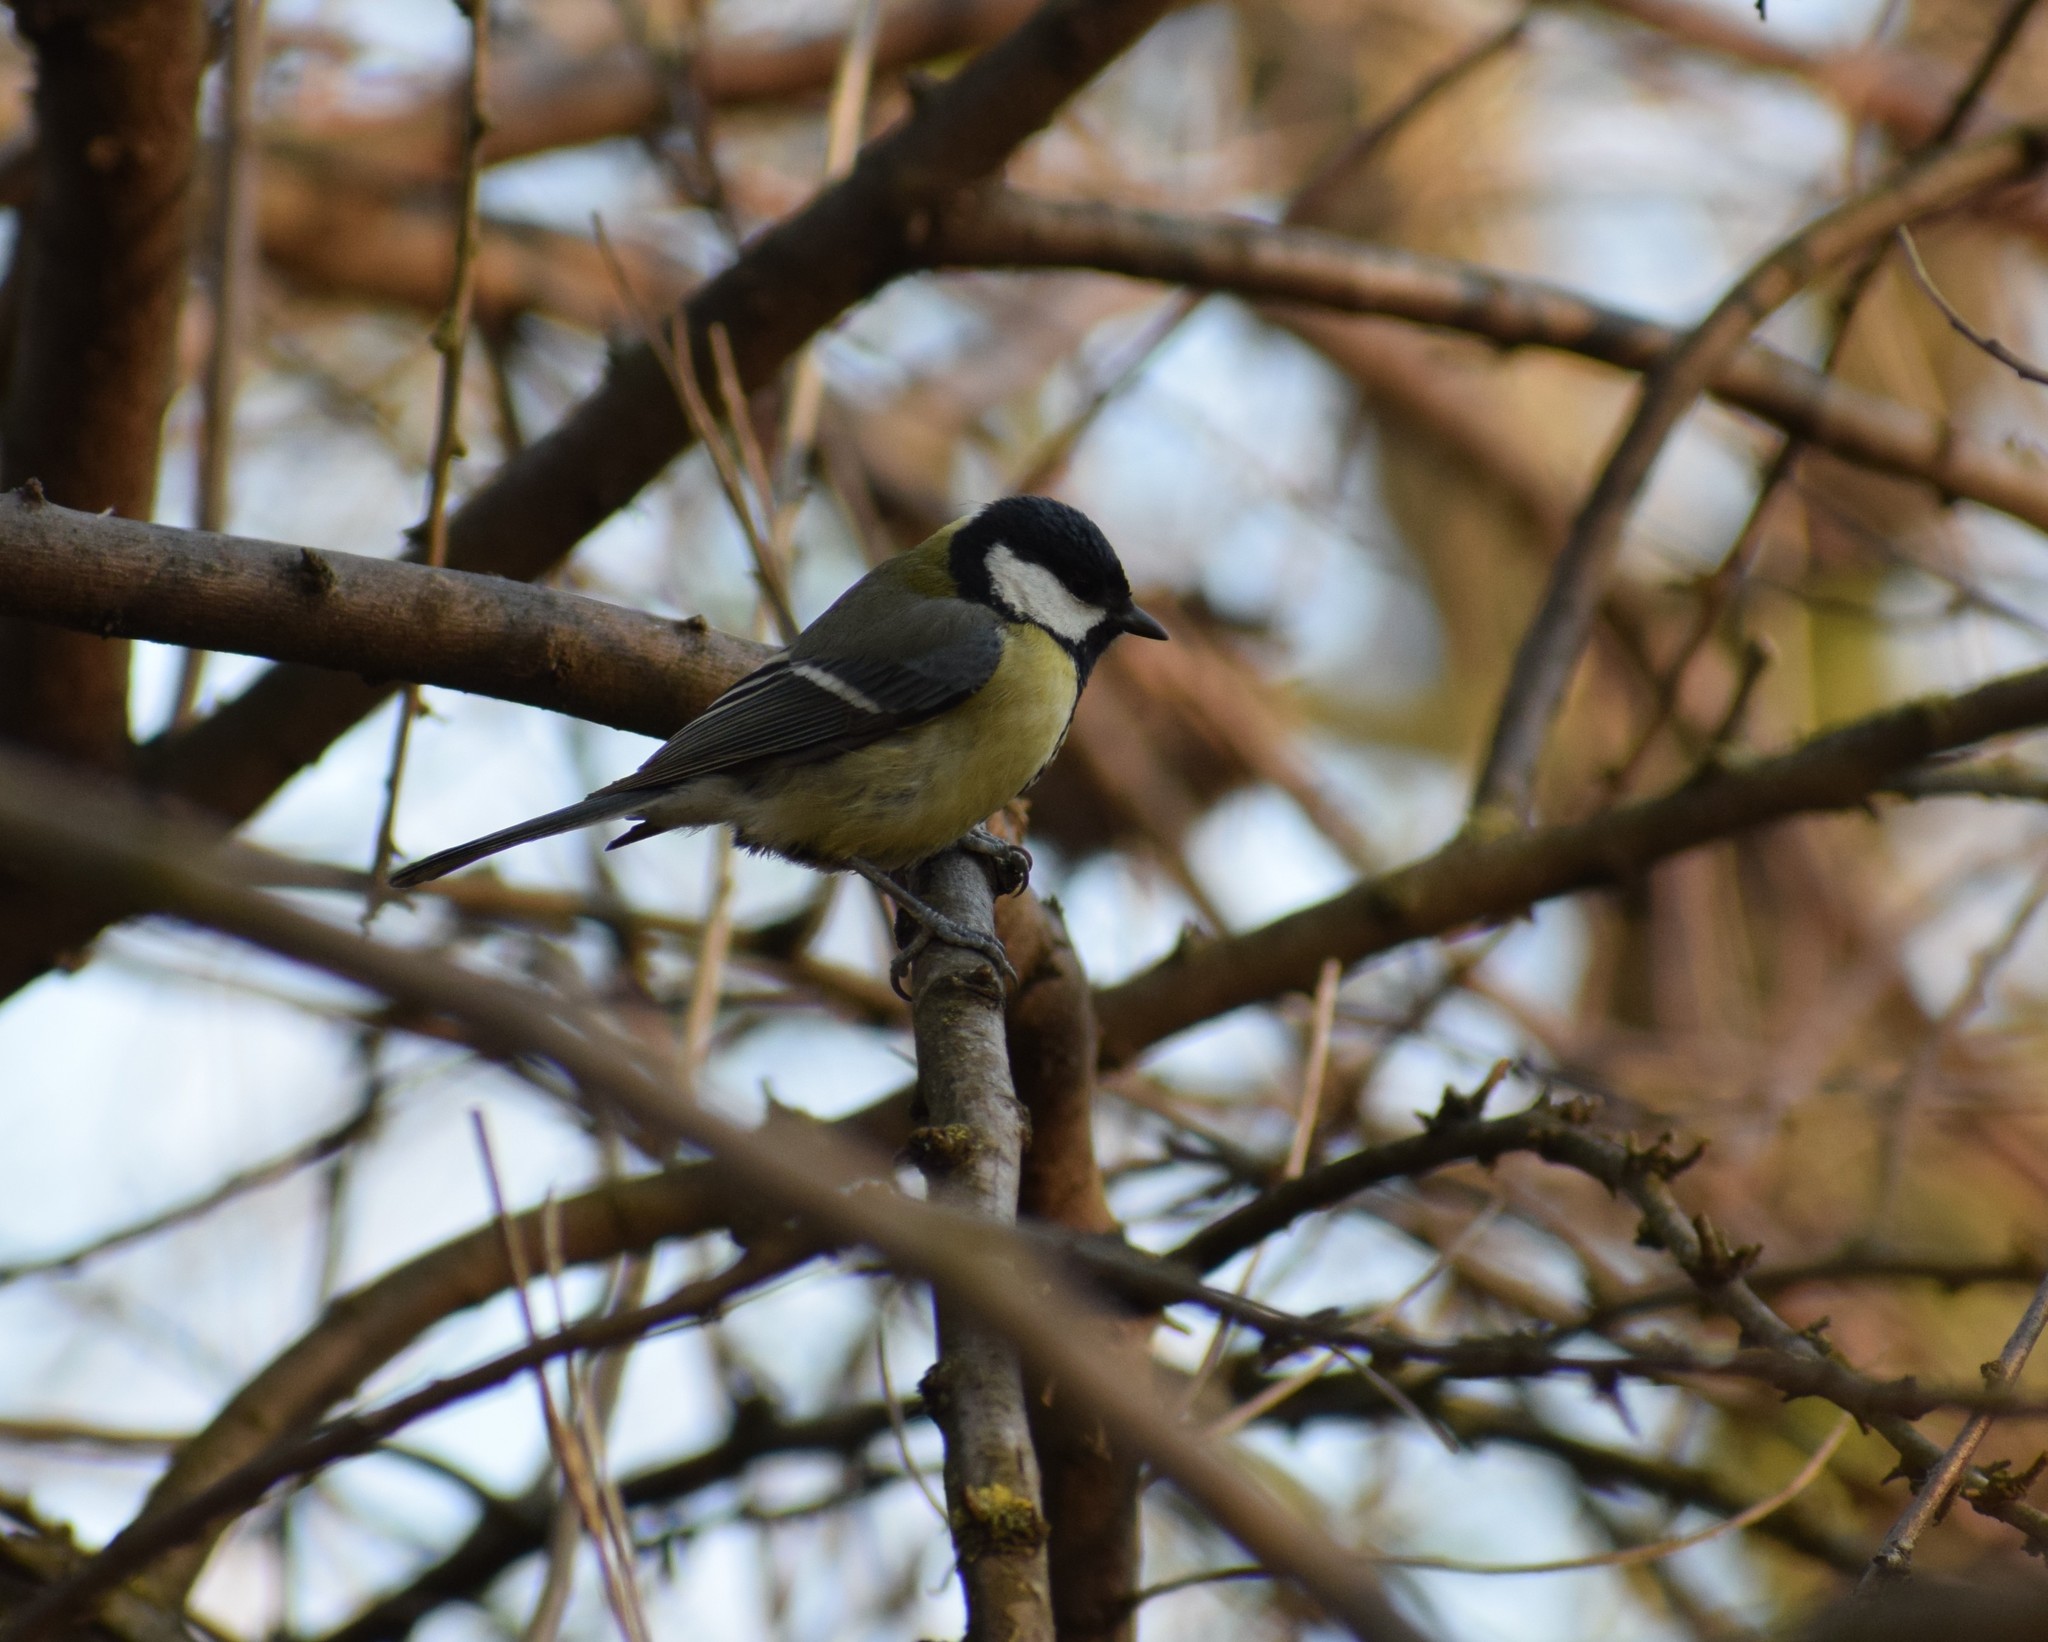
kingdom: Animalia
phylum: Chordata
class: Aves
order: Passeriformes
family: Paridae
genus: Parus
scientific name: Parus major
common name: Great tit
